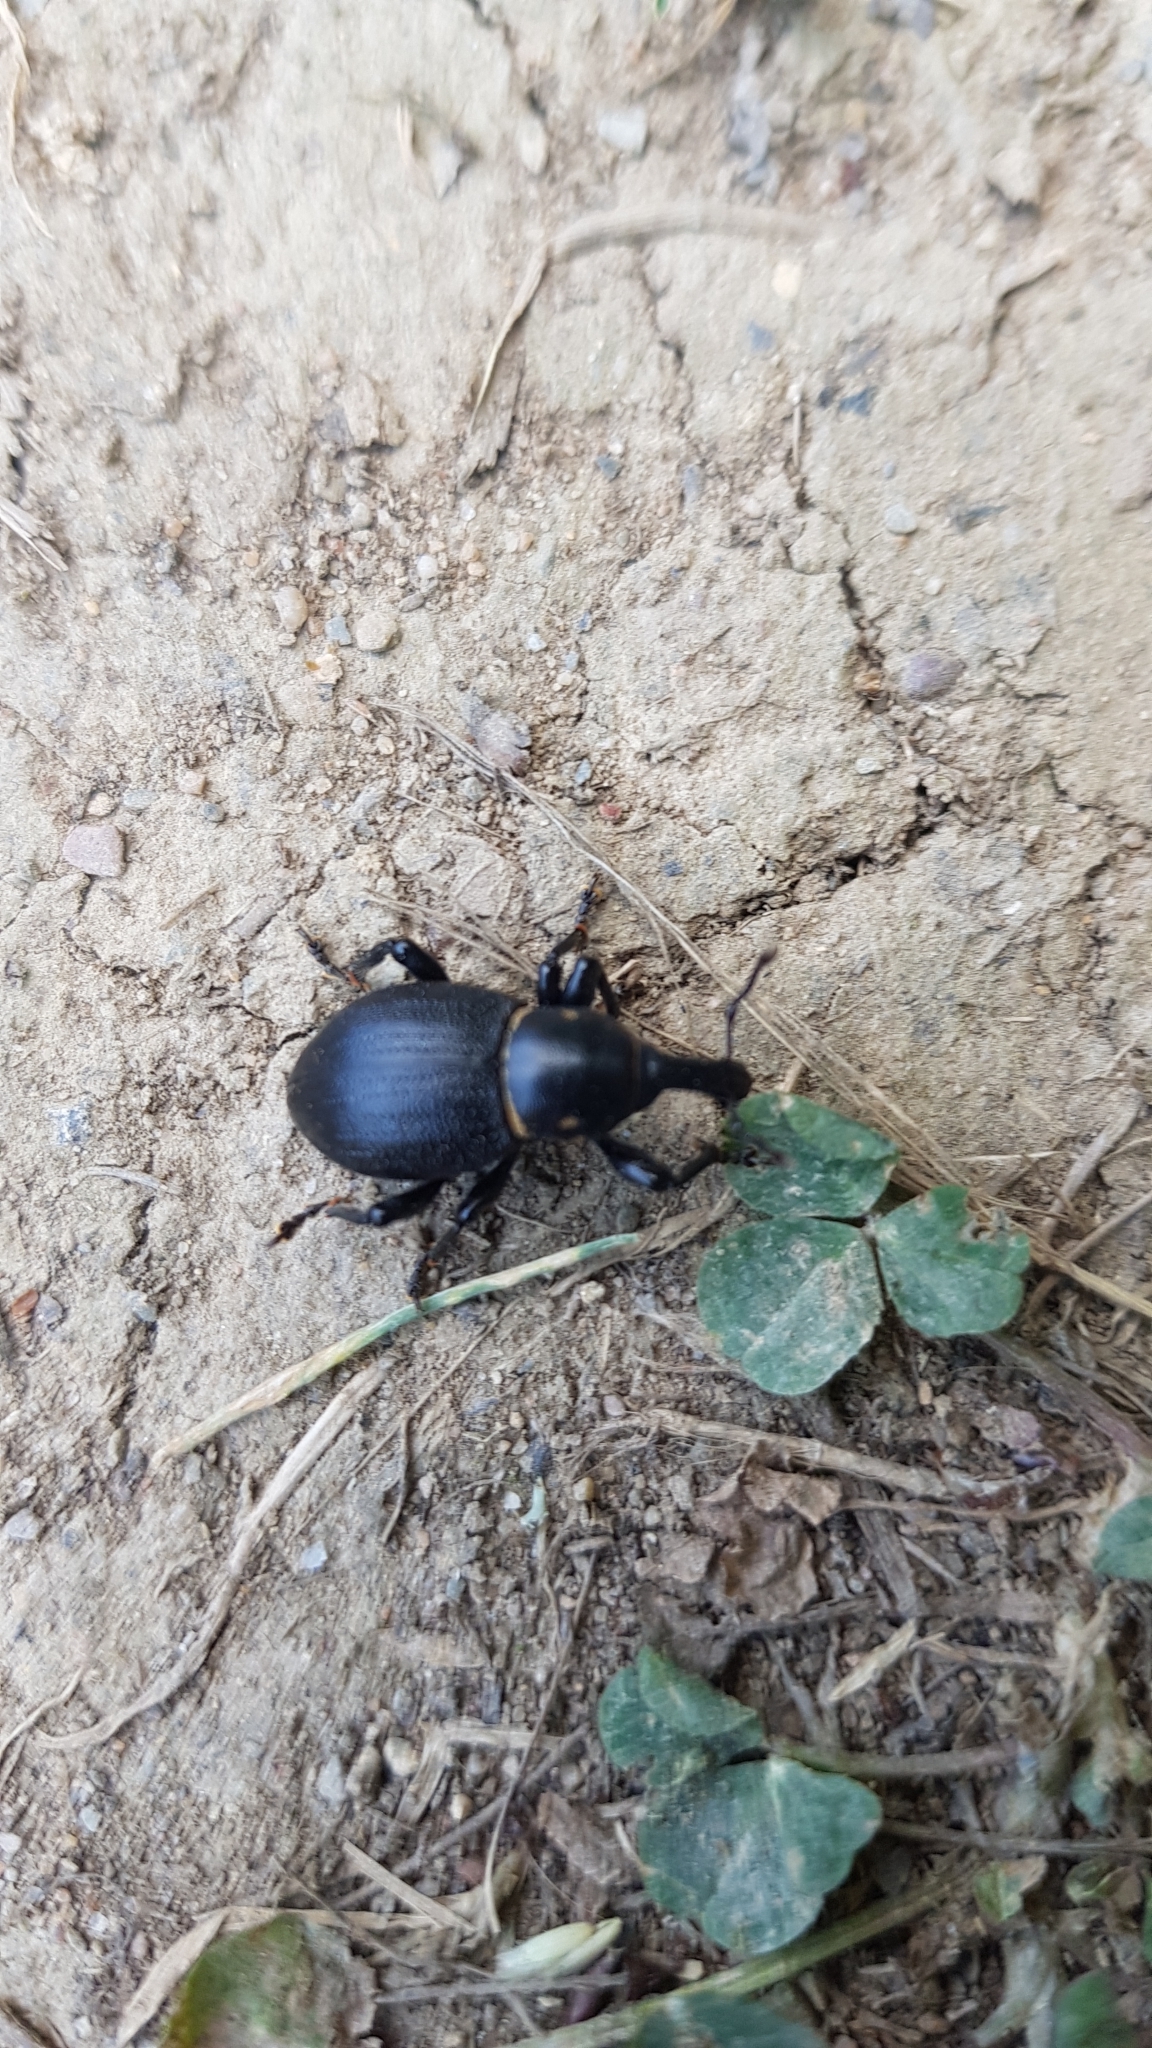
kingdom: Animalia
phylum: Arthropoda
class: Insecta
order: Coleoptera
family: Curculionidae
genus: Liparus
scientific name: Liparus coronatus
